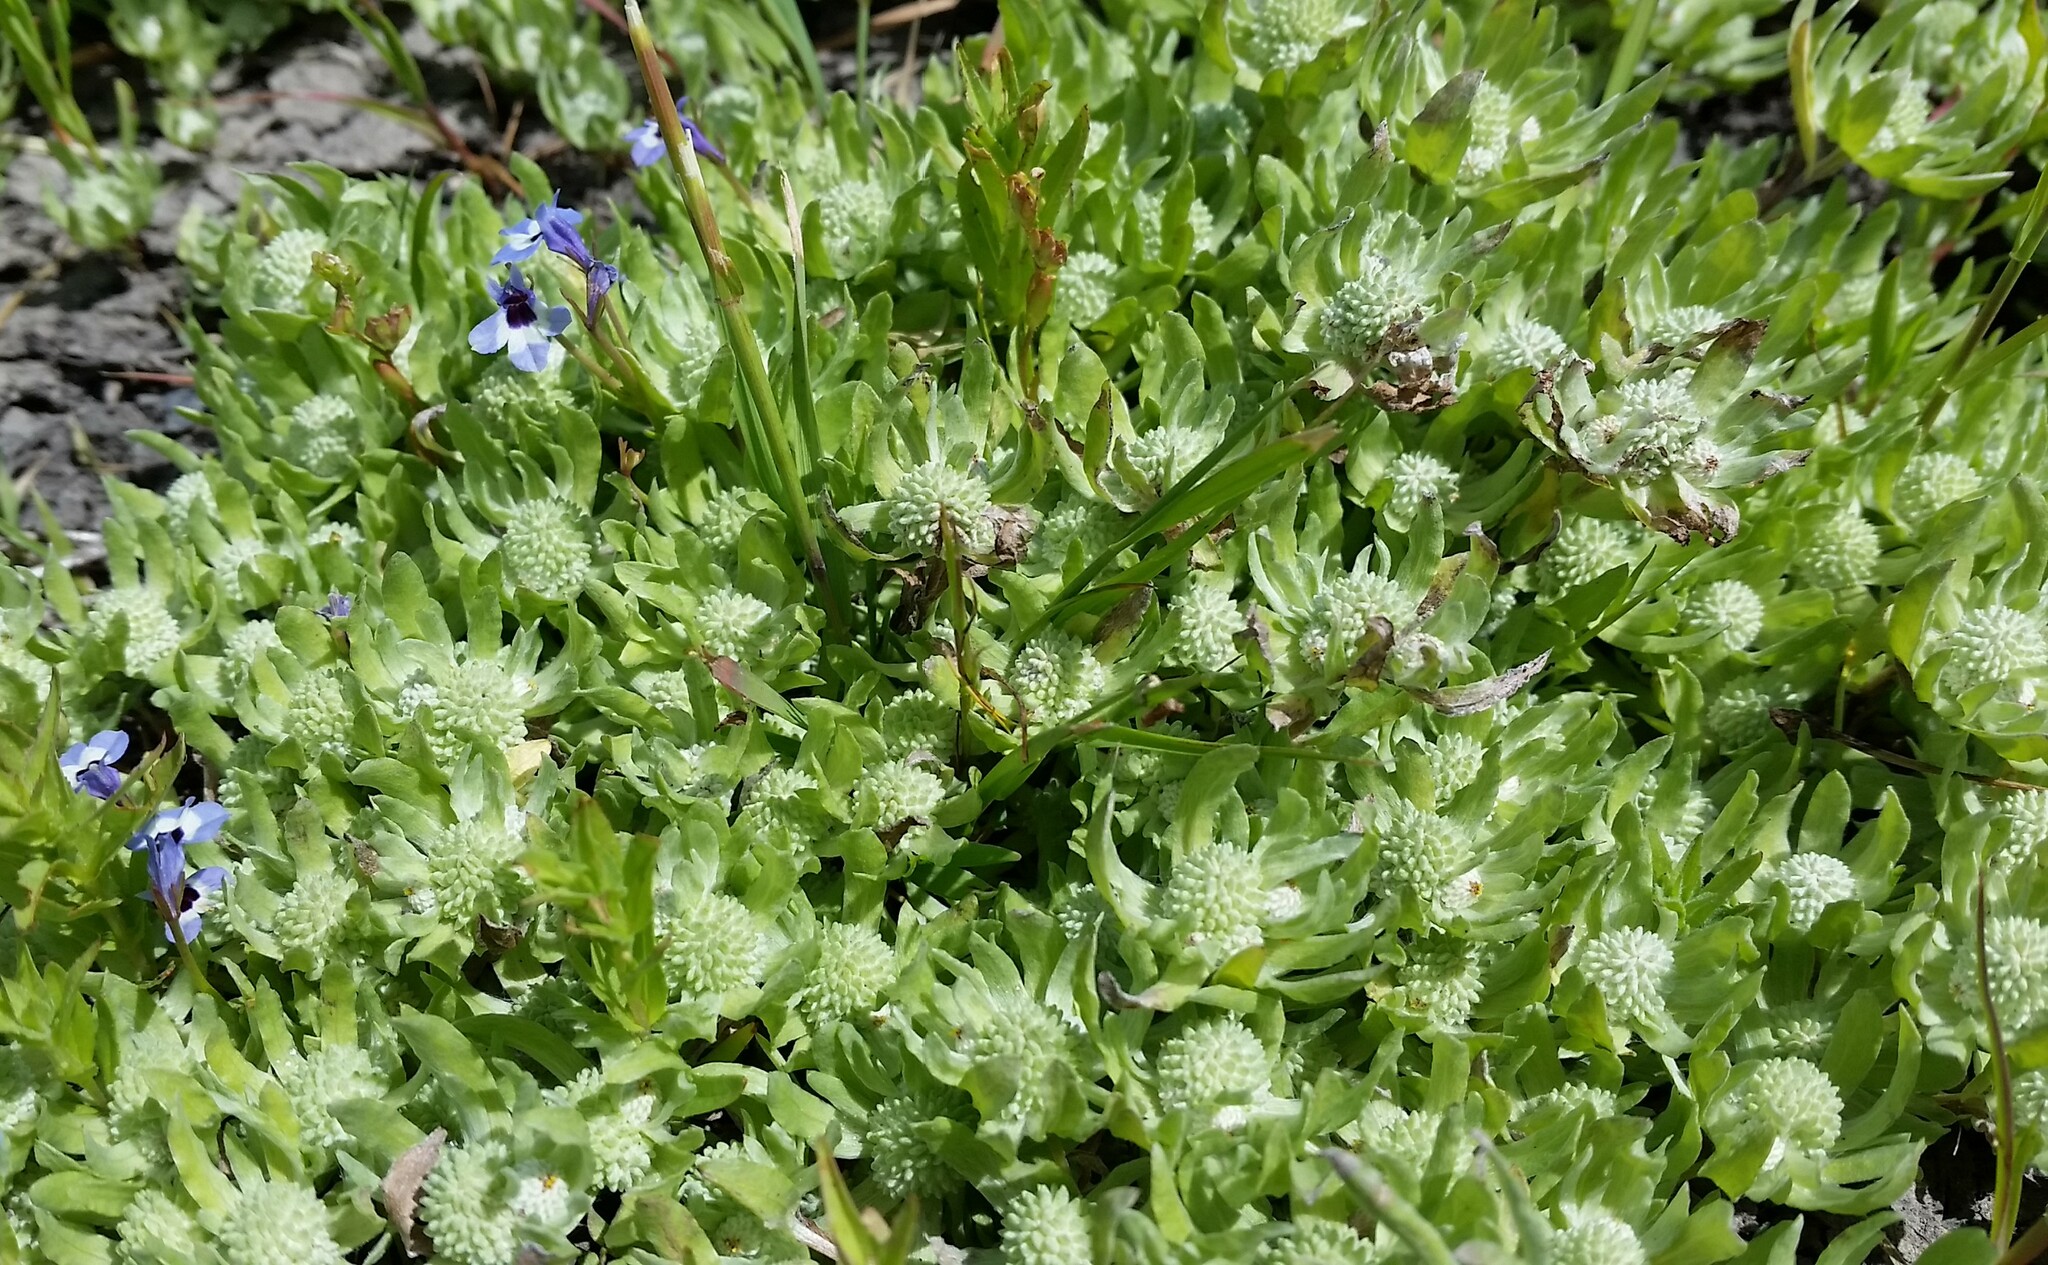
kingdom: Plantae
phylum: Tracheophyta
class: Magnoliopsida
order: Asterales
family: Asteraceae
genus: Psilocarphus
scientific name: Psilocarphus brevissimus
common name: Dwarf woollyheads
